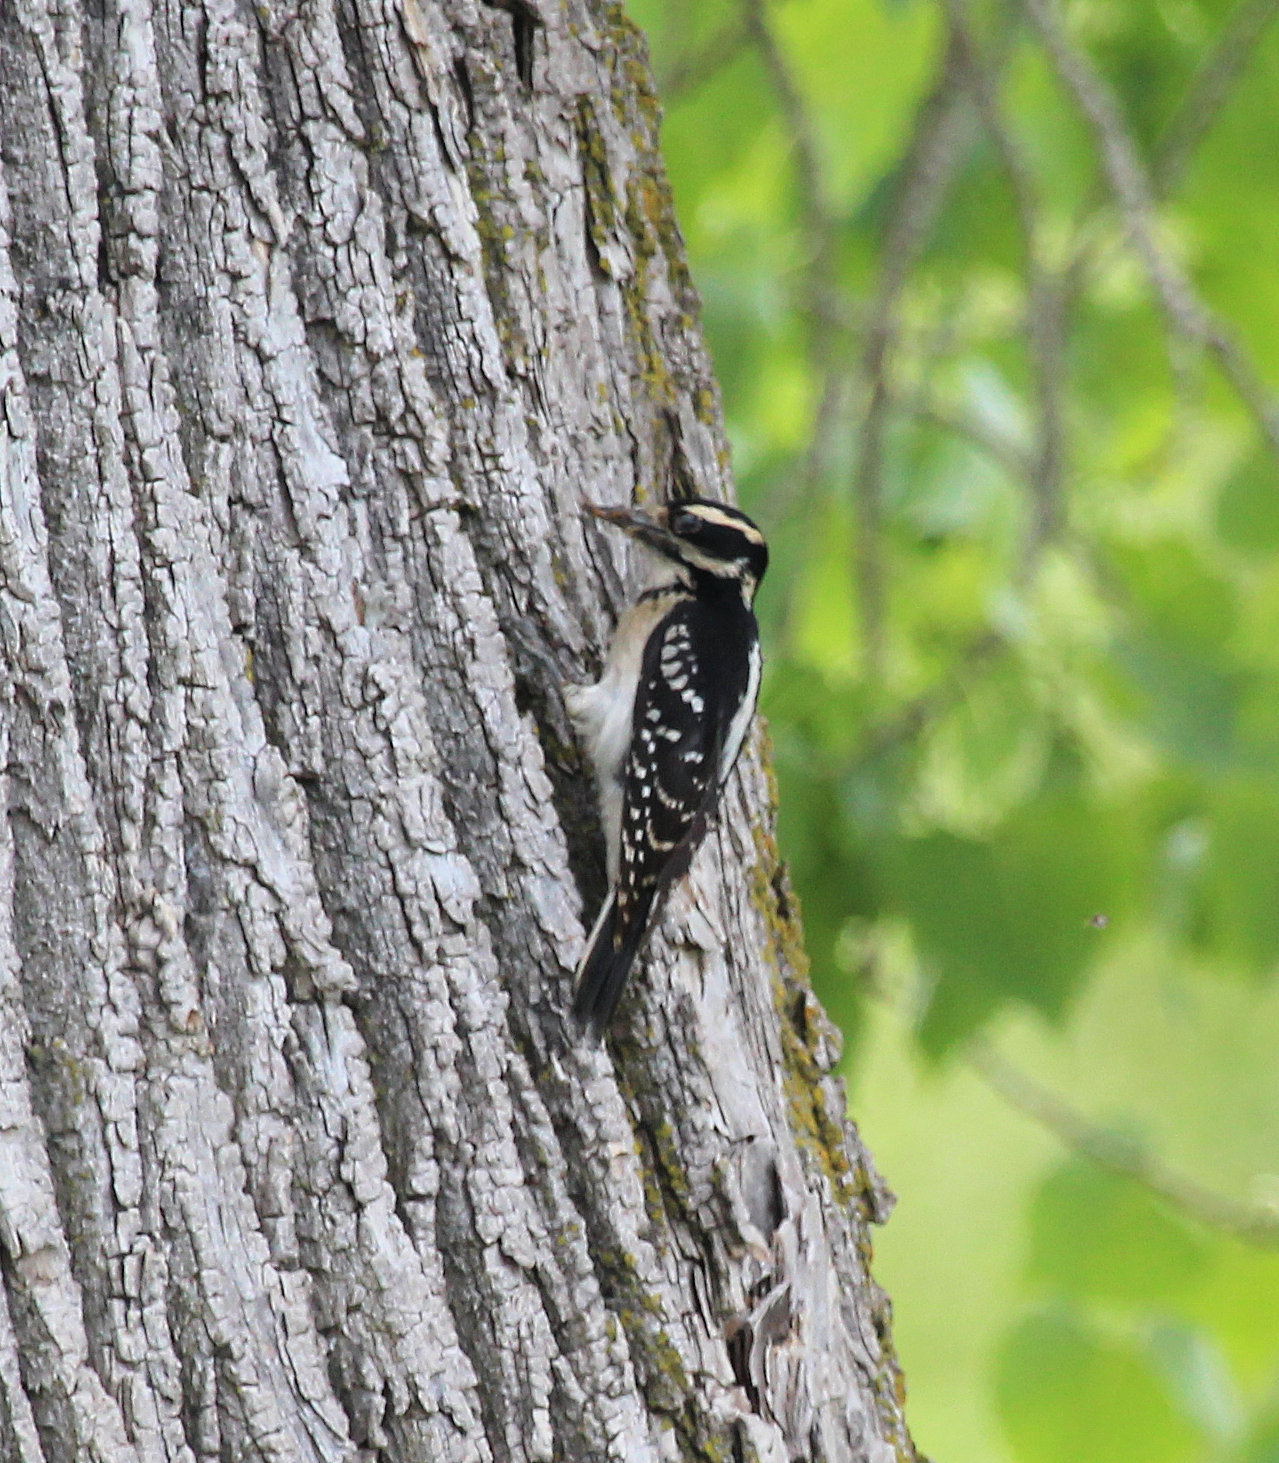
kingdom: Animalia
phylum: Chordata
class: Aves
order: Piciformes
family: Picidae
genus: Leuconotopicus
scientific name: Leuconotopicus villosus
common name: Hairy woodpecker
